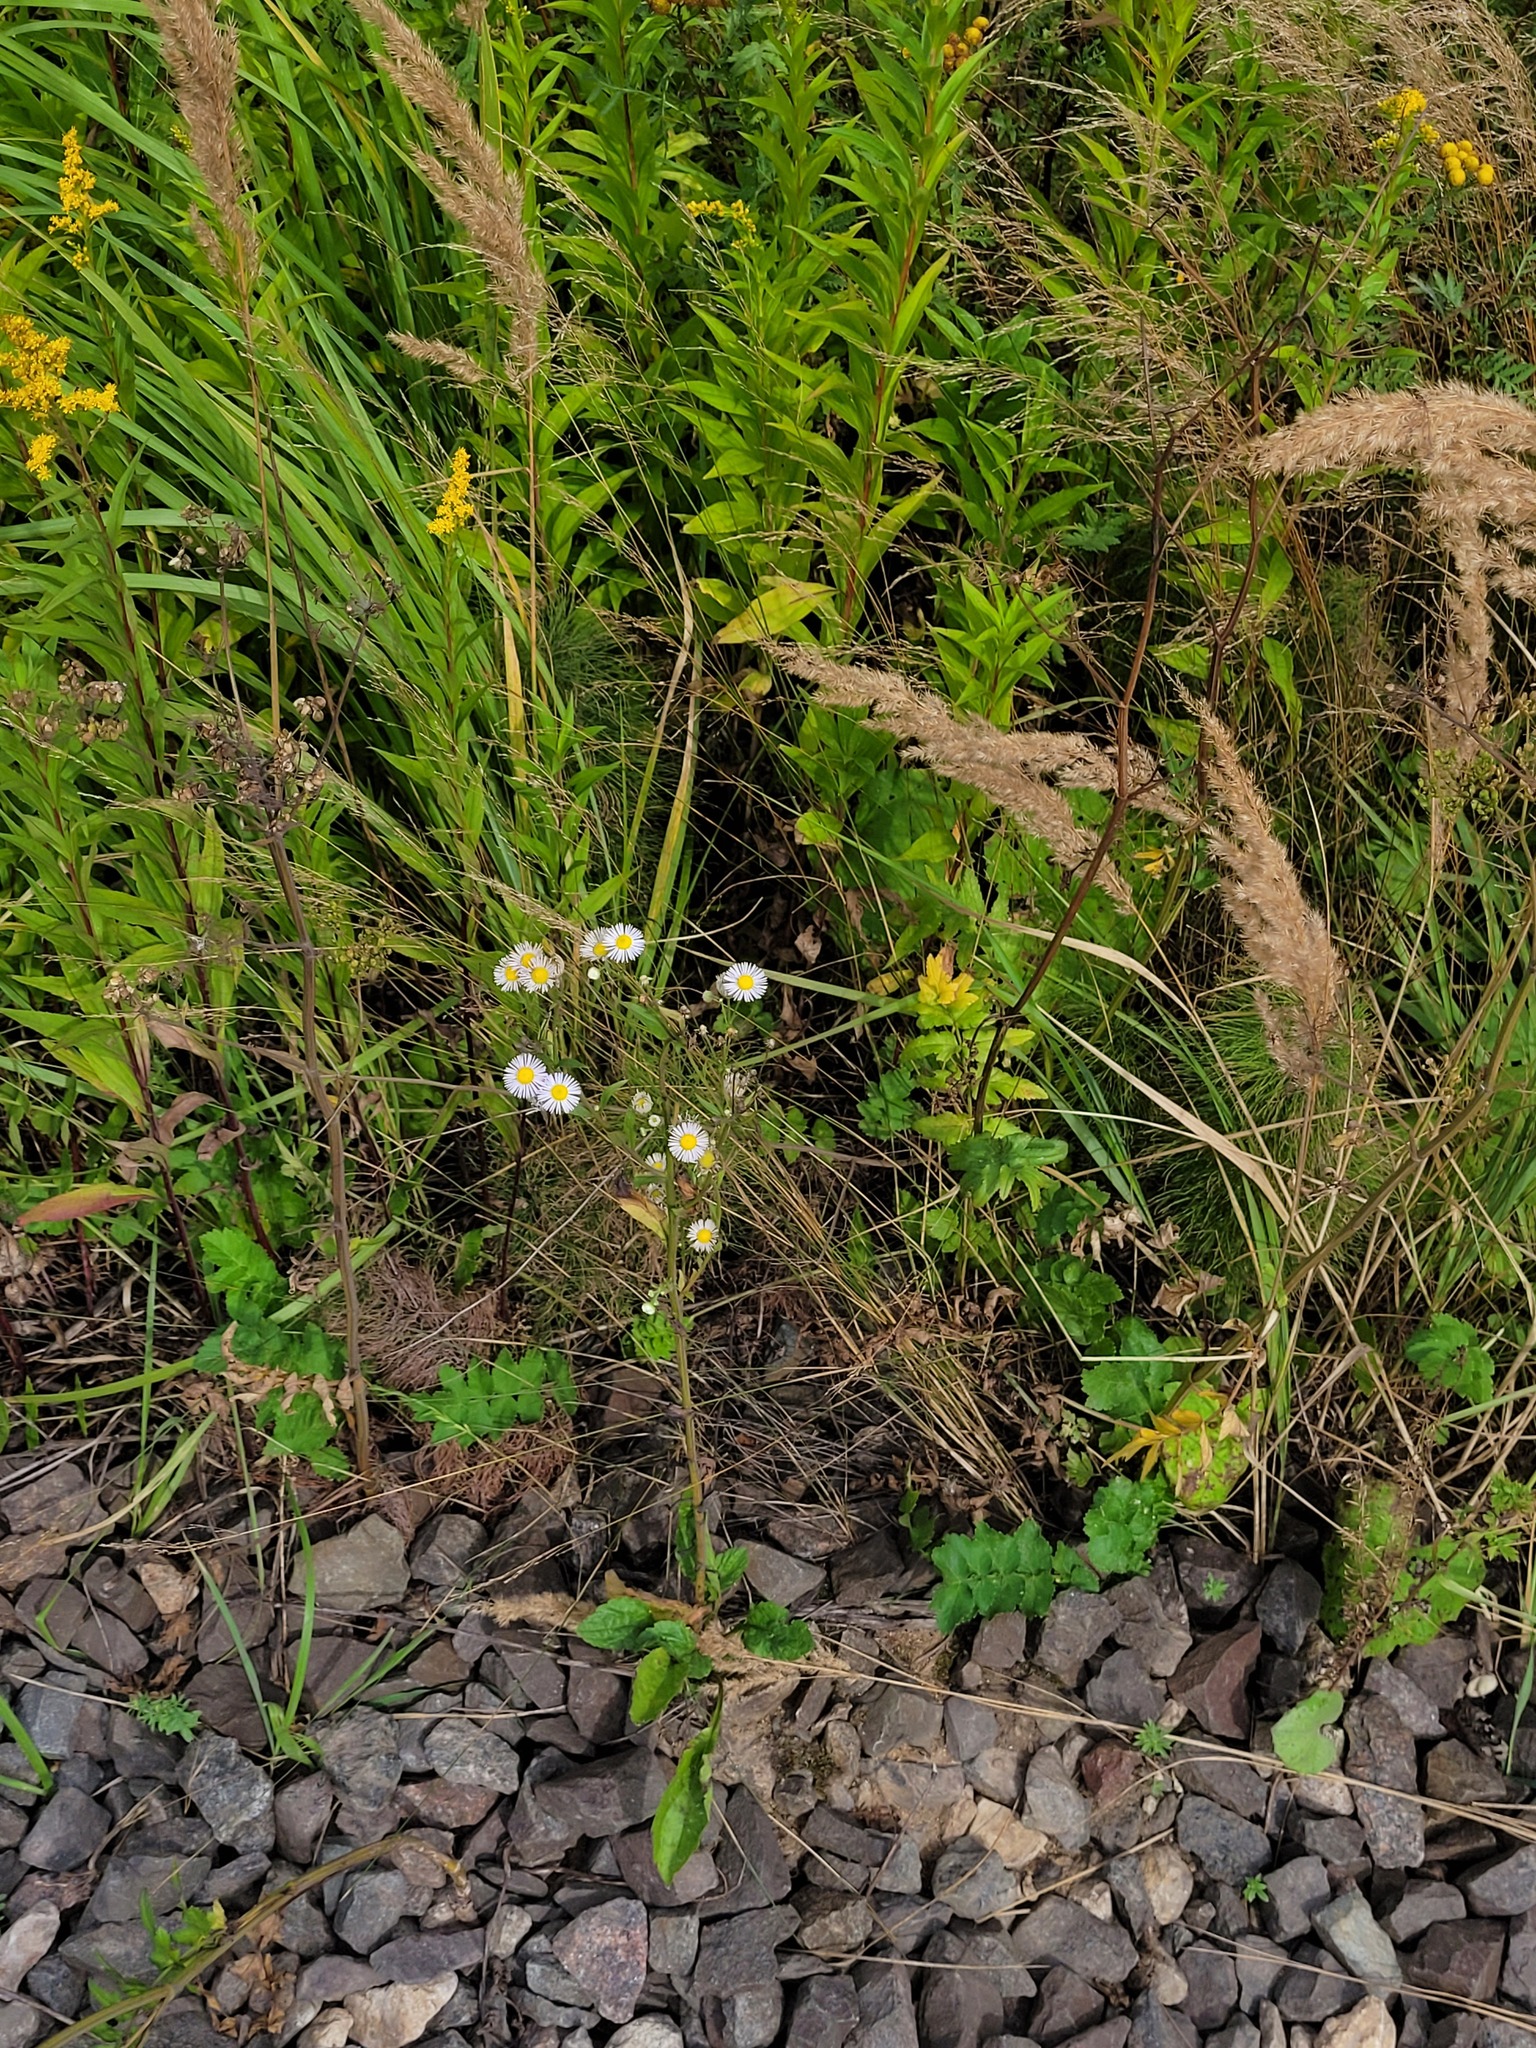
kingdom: Plantae
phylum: Tracheophyta
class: Magnoliopsida
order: Asterales
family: Asteraceae
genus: Erigeron
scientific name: Erigeron annuus
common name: Tall fleabane
